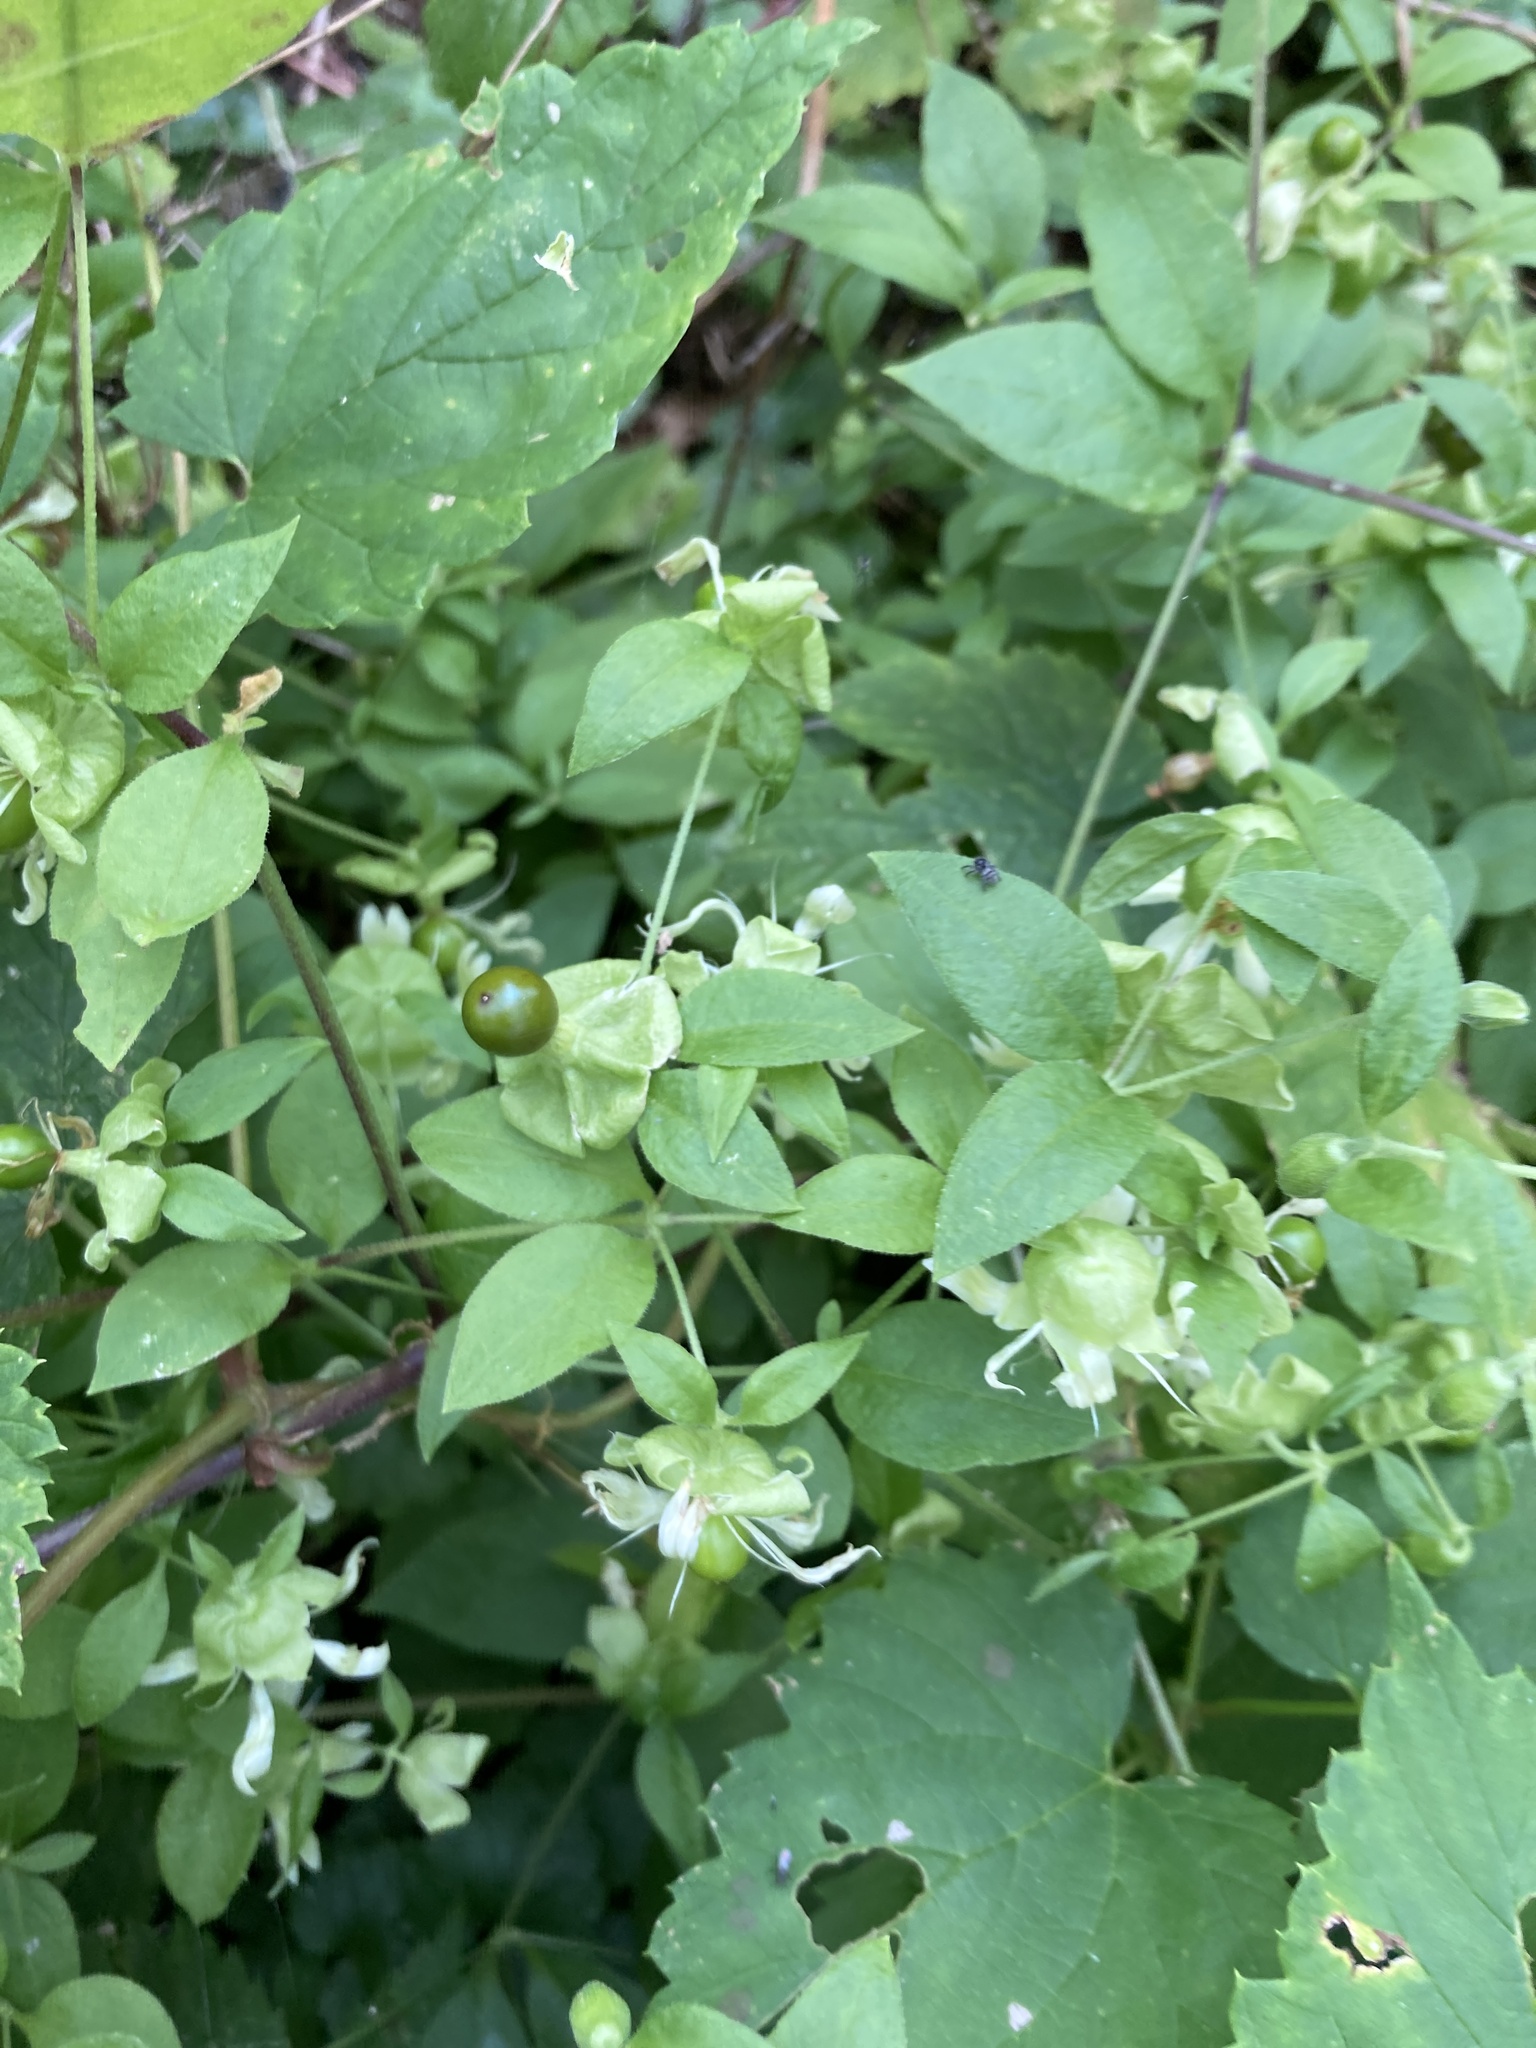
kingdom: Plantae
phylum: Tracheophyta
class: Magnoliopsida
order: Caryophyllales
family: Caryophyllaceae
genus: Silene
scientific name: Silene baccifera
